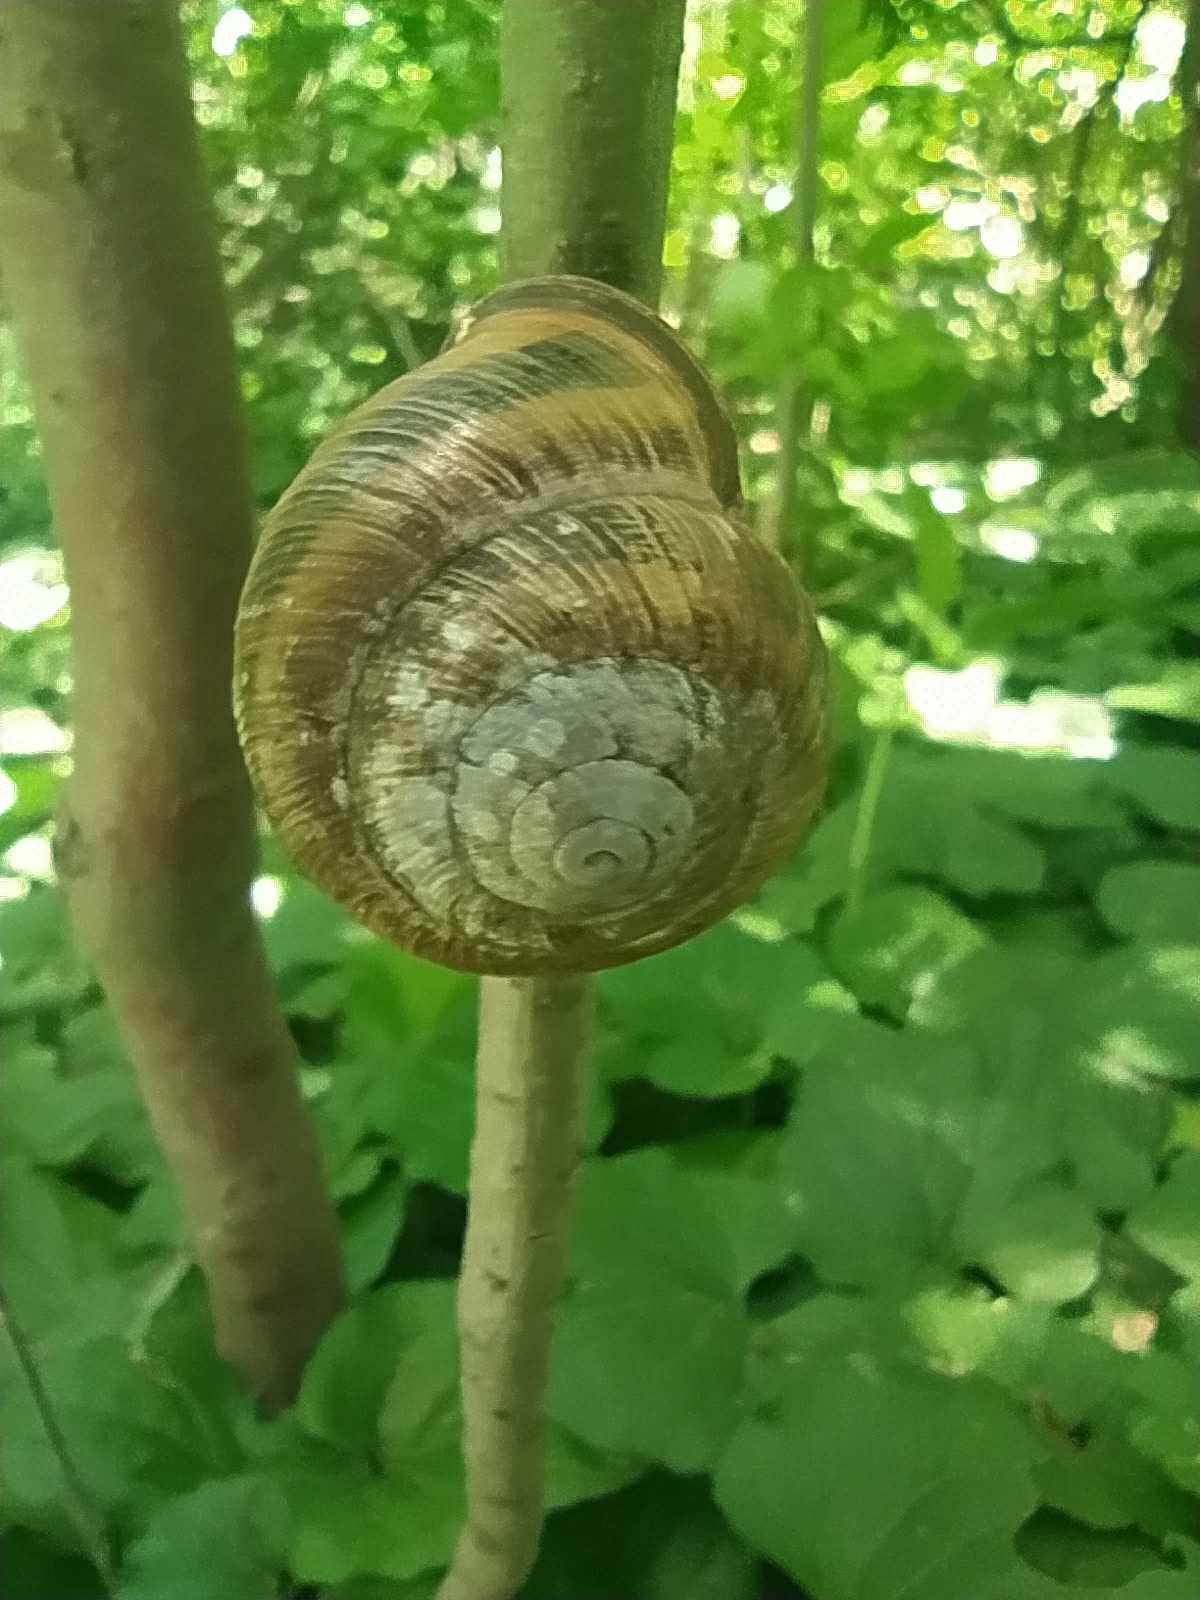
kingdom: Animalia
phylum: Mollusca
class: Gastropoda
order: Stylommatophora
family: Helicidae
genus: Caucasotachea
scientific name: Caucasotachea atrolabiata
